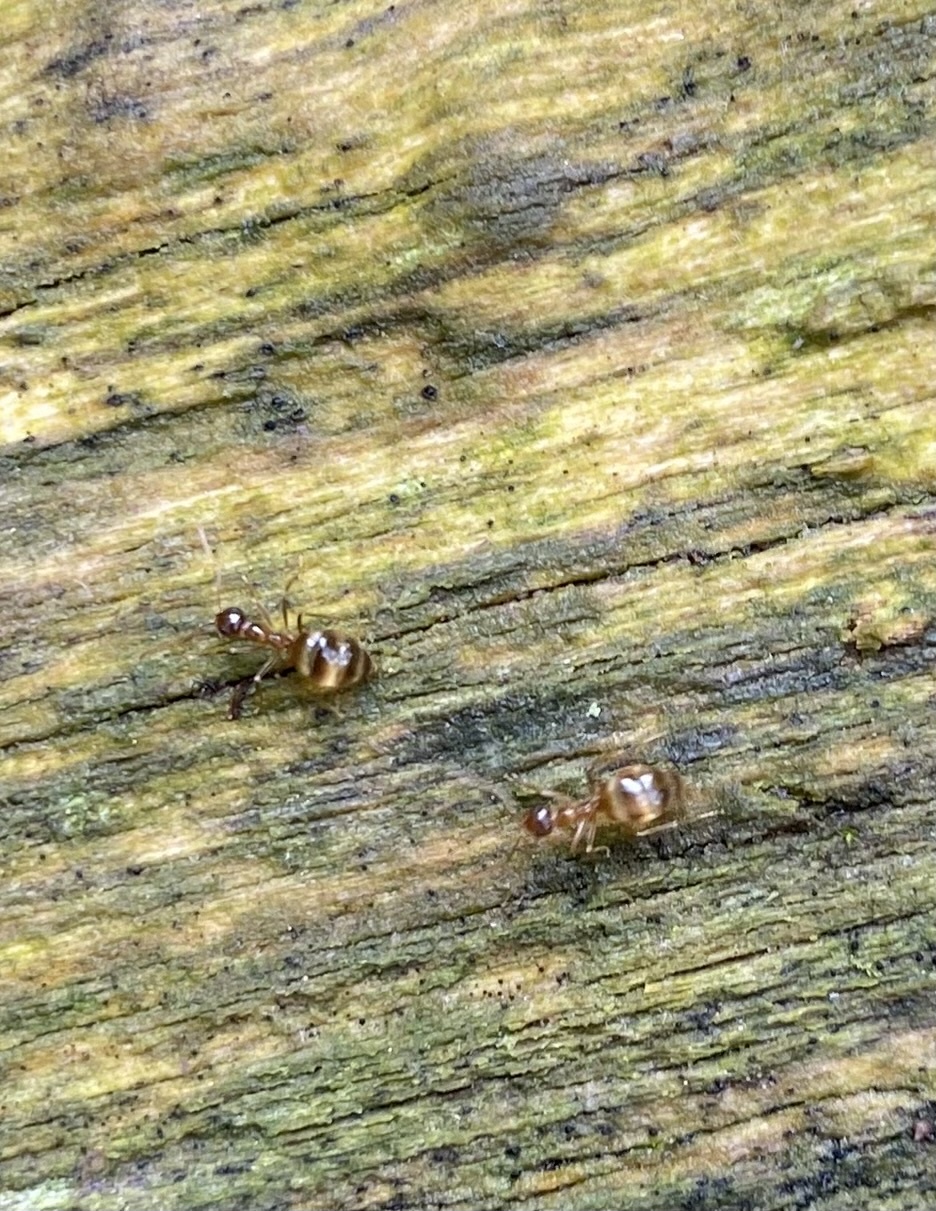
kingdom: Animalia
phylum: Arthropoda
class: Insecta
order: Hymenoptera
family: Formicidae
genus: Prenolepis
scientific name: Prenolepis imparis
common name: Small honey ant
